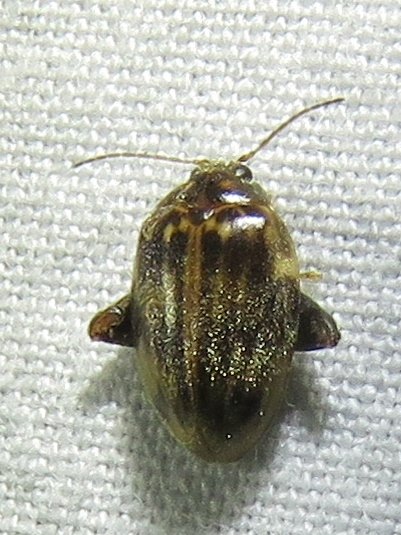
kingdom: Animalia
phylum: Arthropoda
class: Insecta
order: Coleoptera
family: Scirtidae
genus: Ora
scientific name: Ora texana
